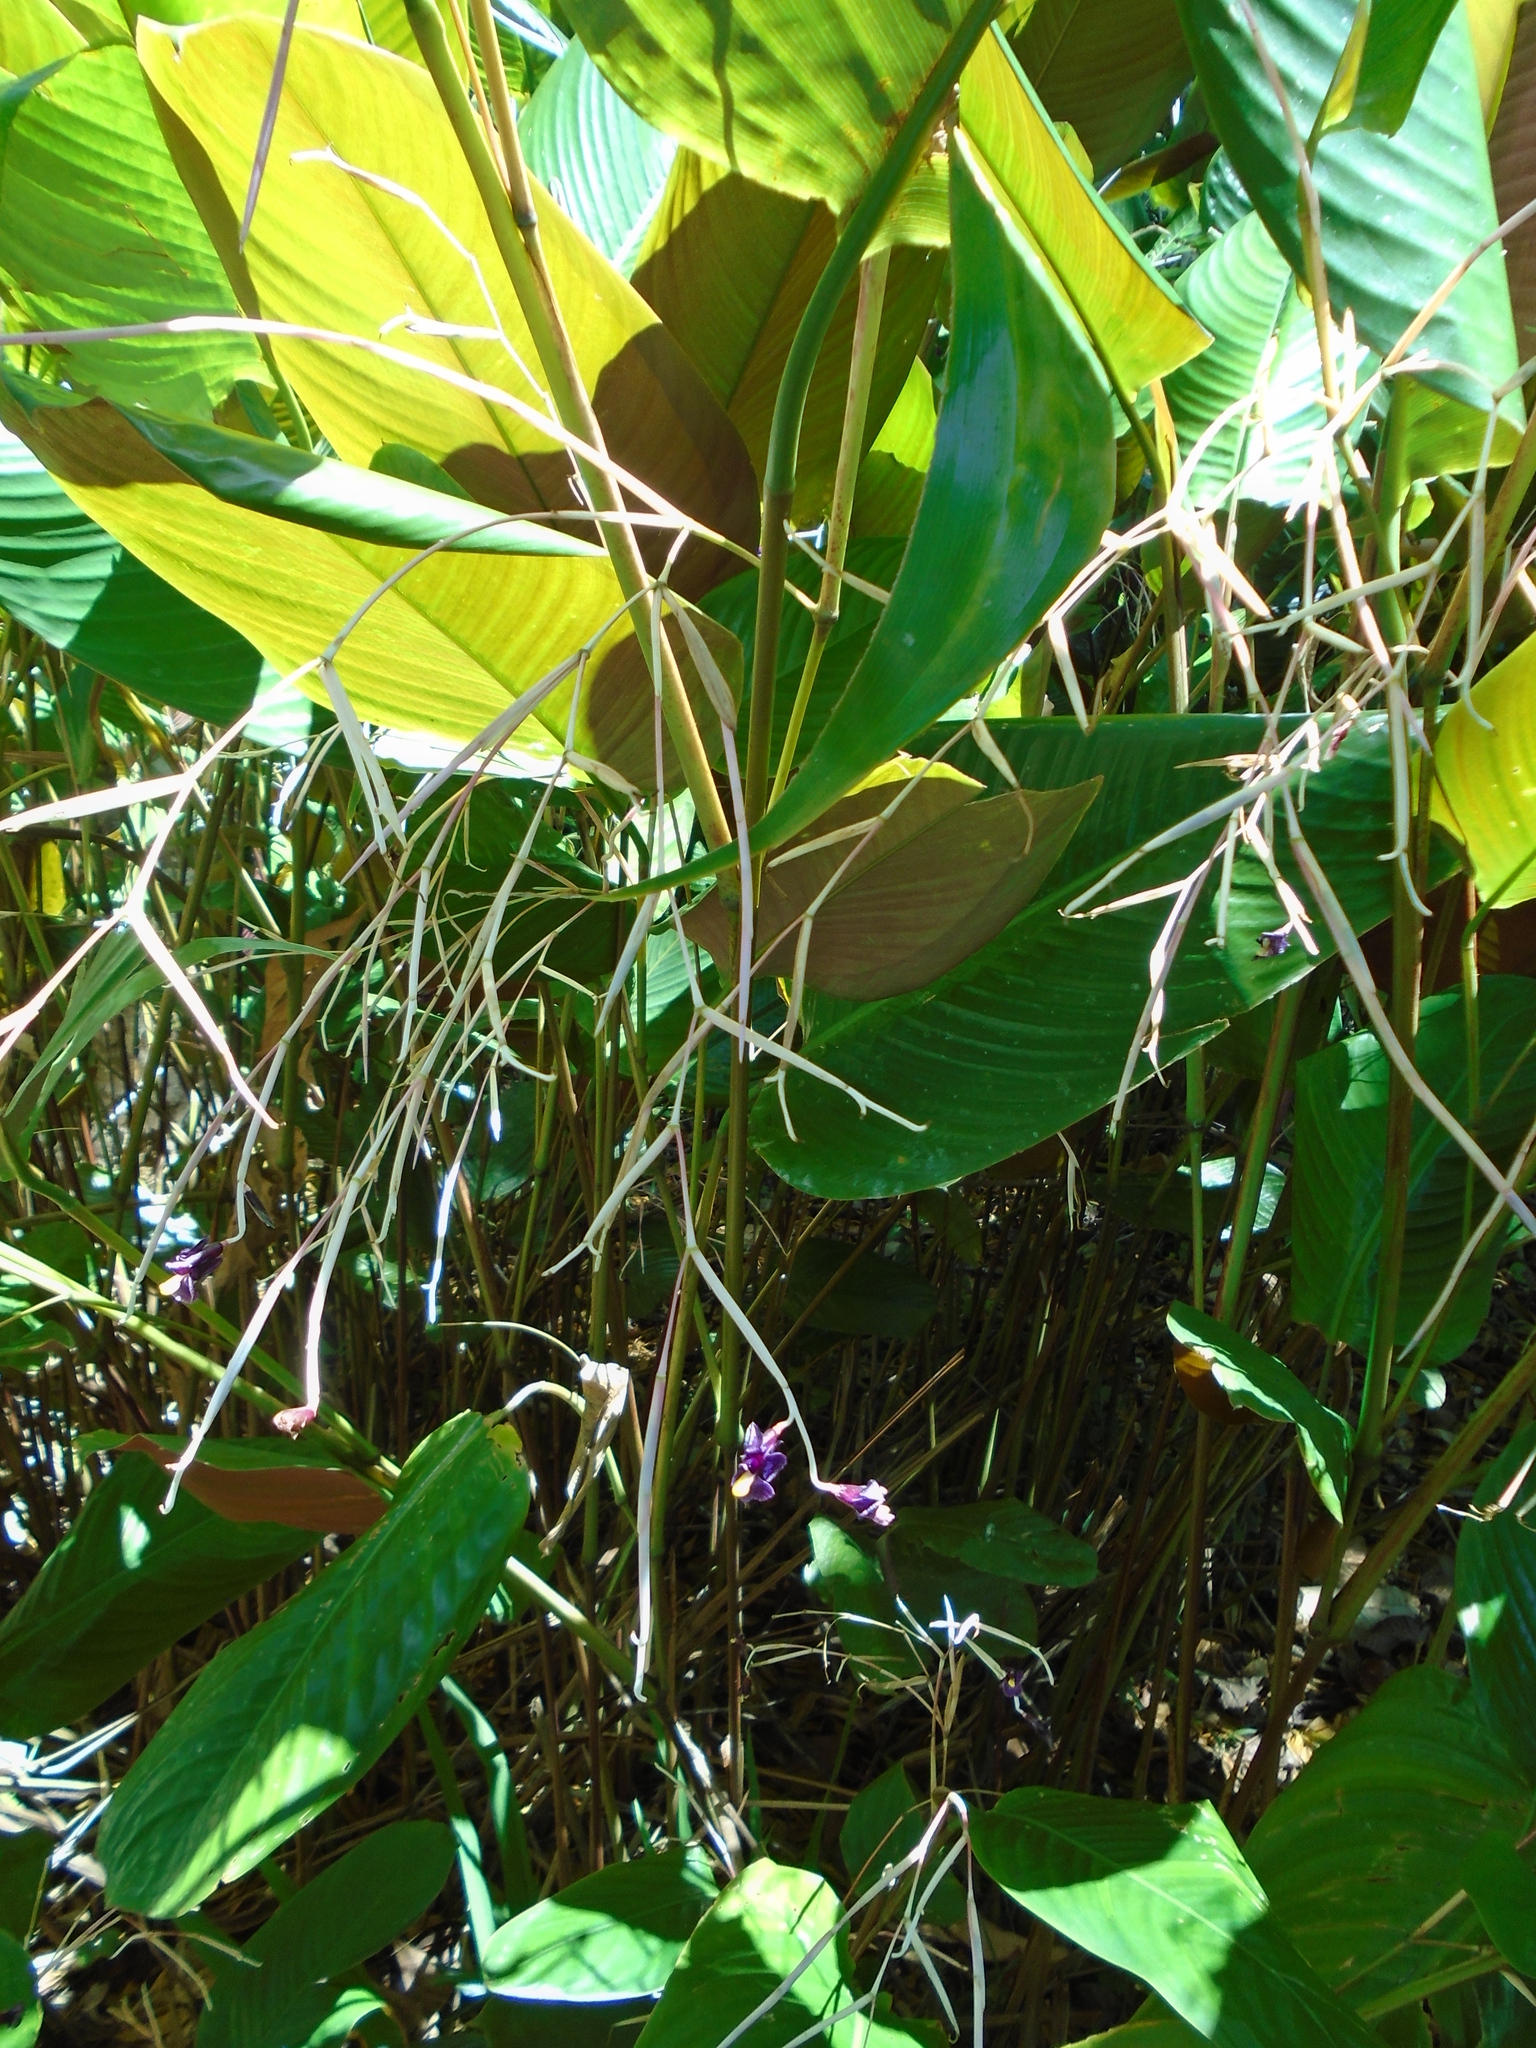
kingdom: Plantae
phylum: Tracheophyta
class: Liliopsida
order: Zingiberales
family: Marantaceae
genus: Thalia
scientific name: Thalia geniculata
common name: Arrowroot
